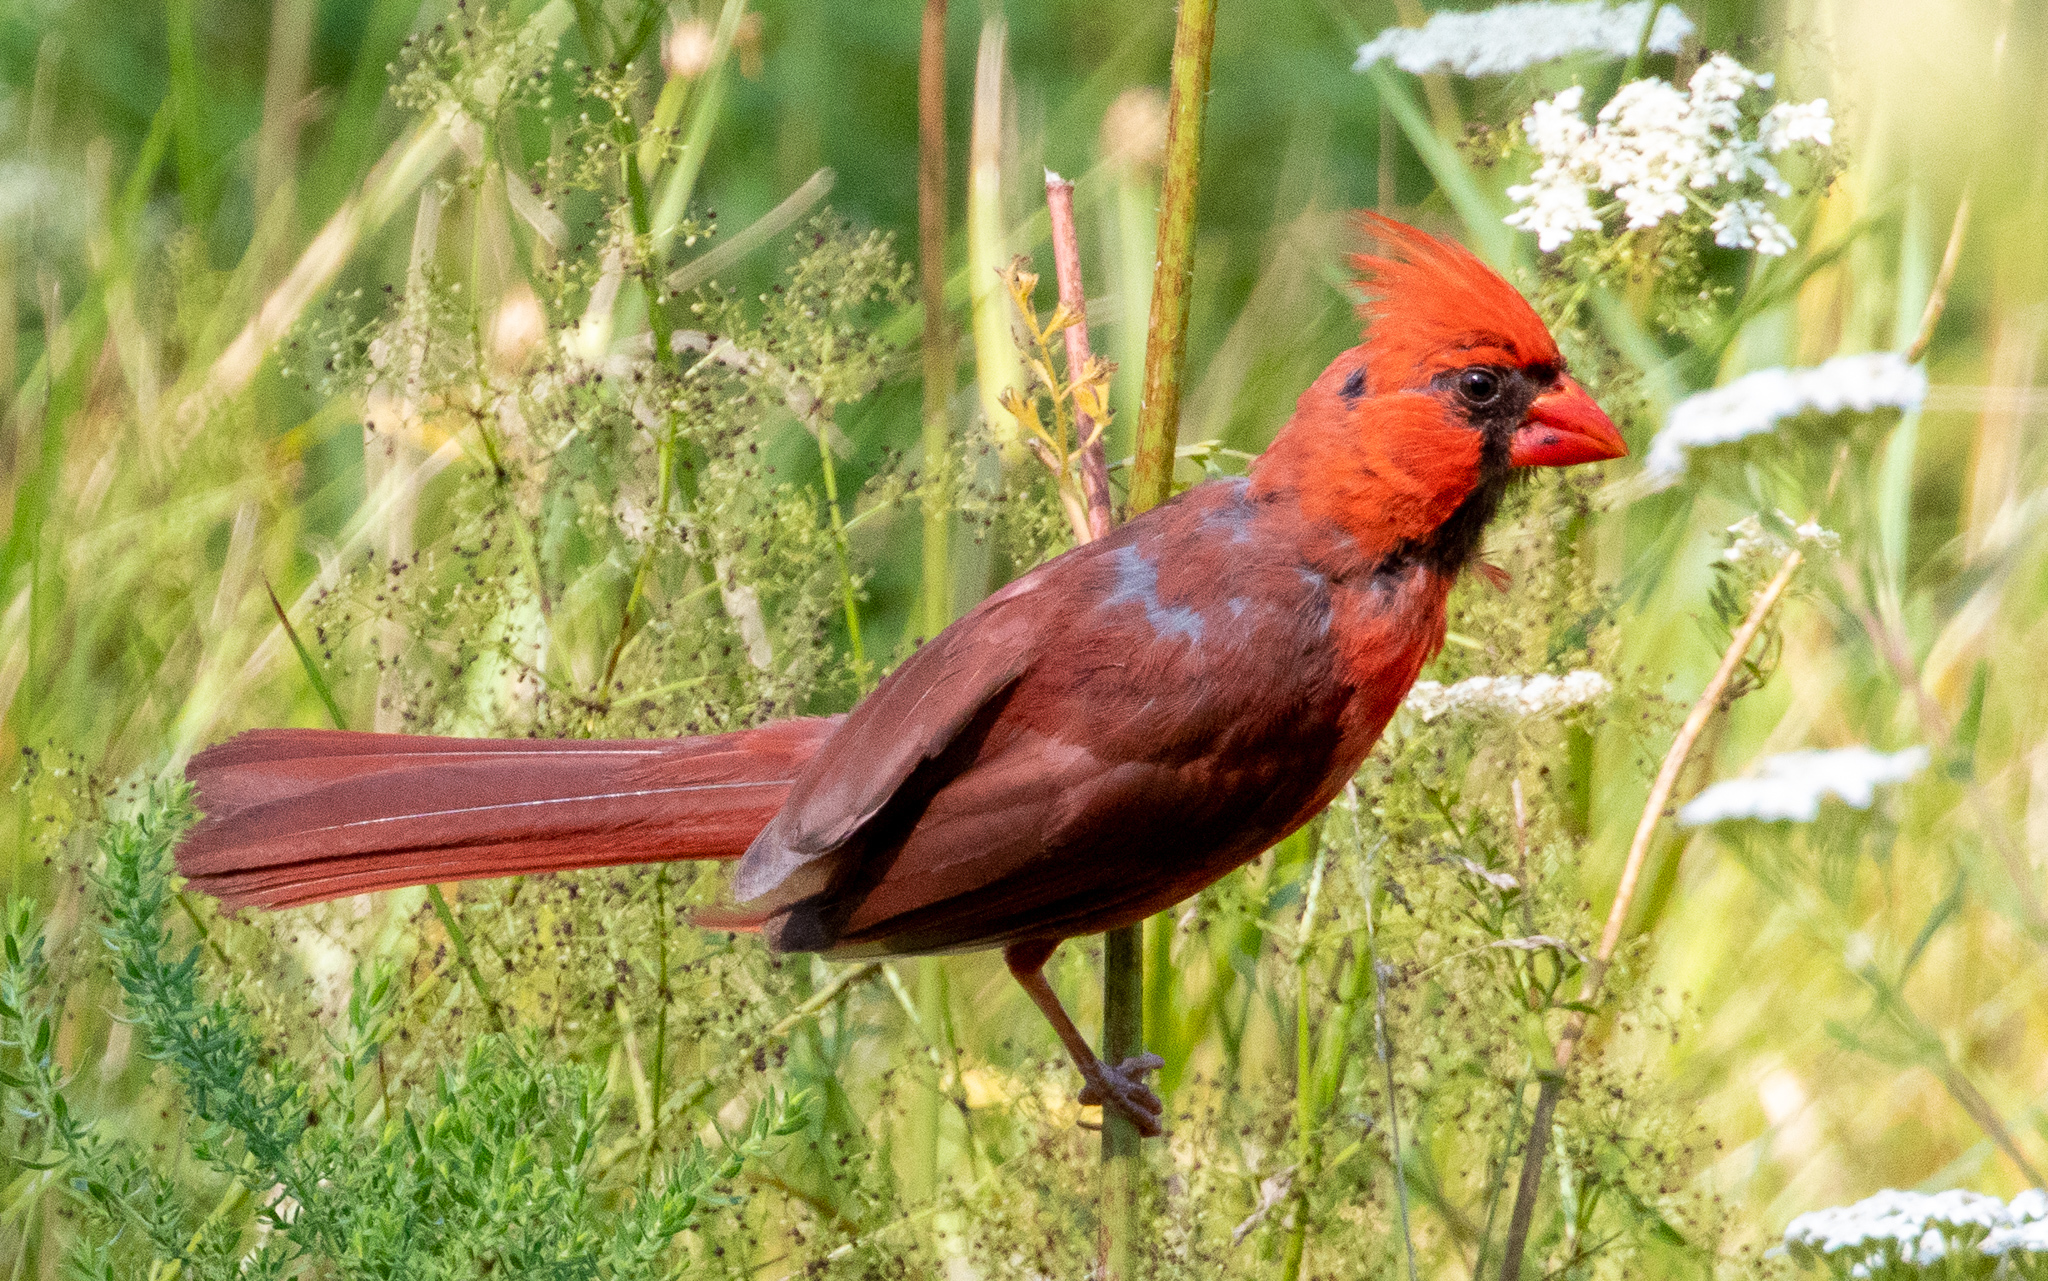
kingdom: Animalia
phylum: Chordata
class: Aves
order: Passeriformes
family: Cardinalidae
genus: Cardinalis
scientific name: Cardinalis cardinalis
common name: Northern cardinal
